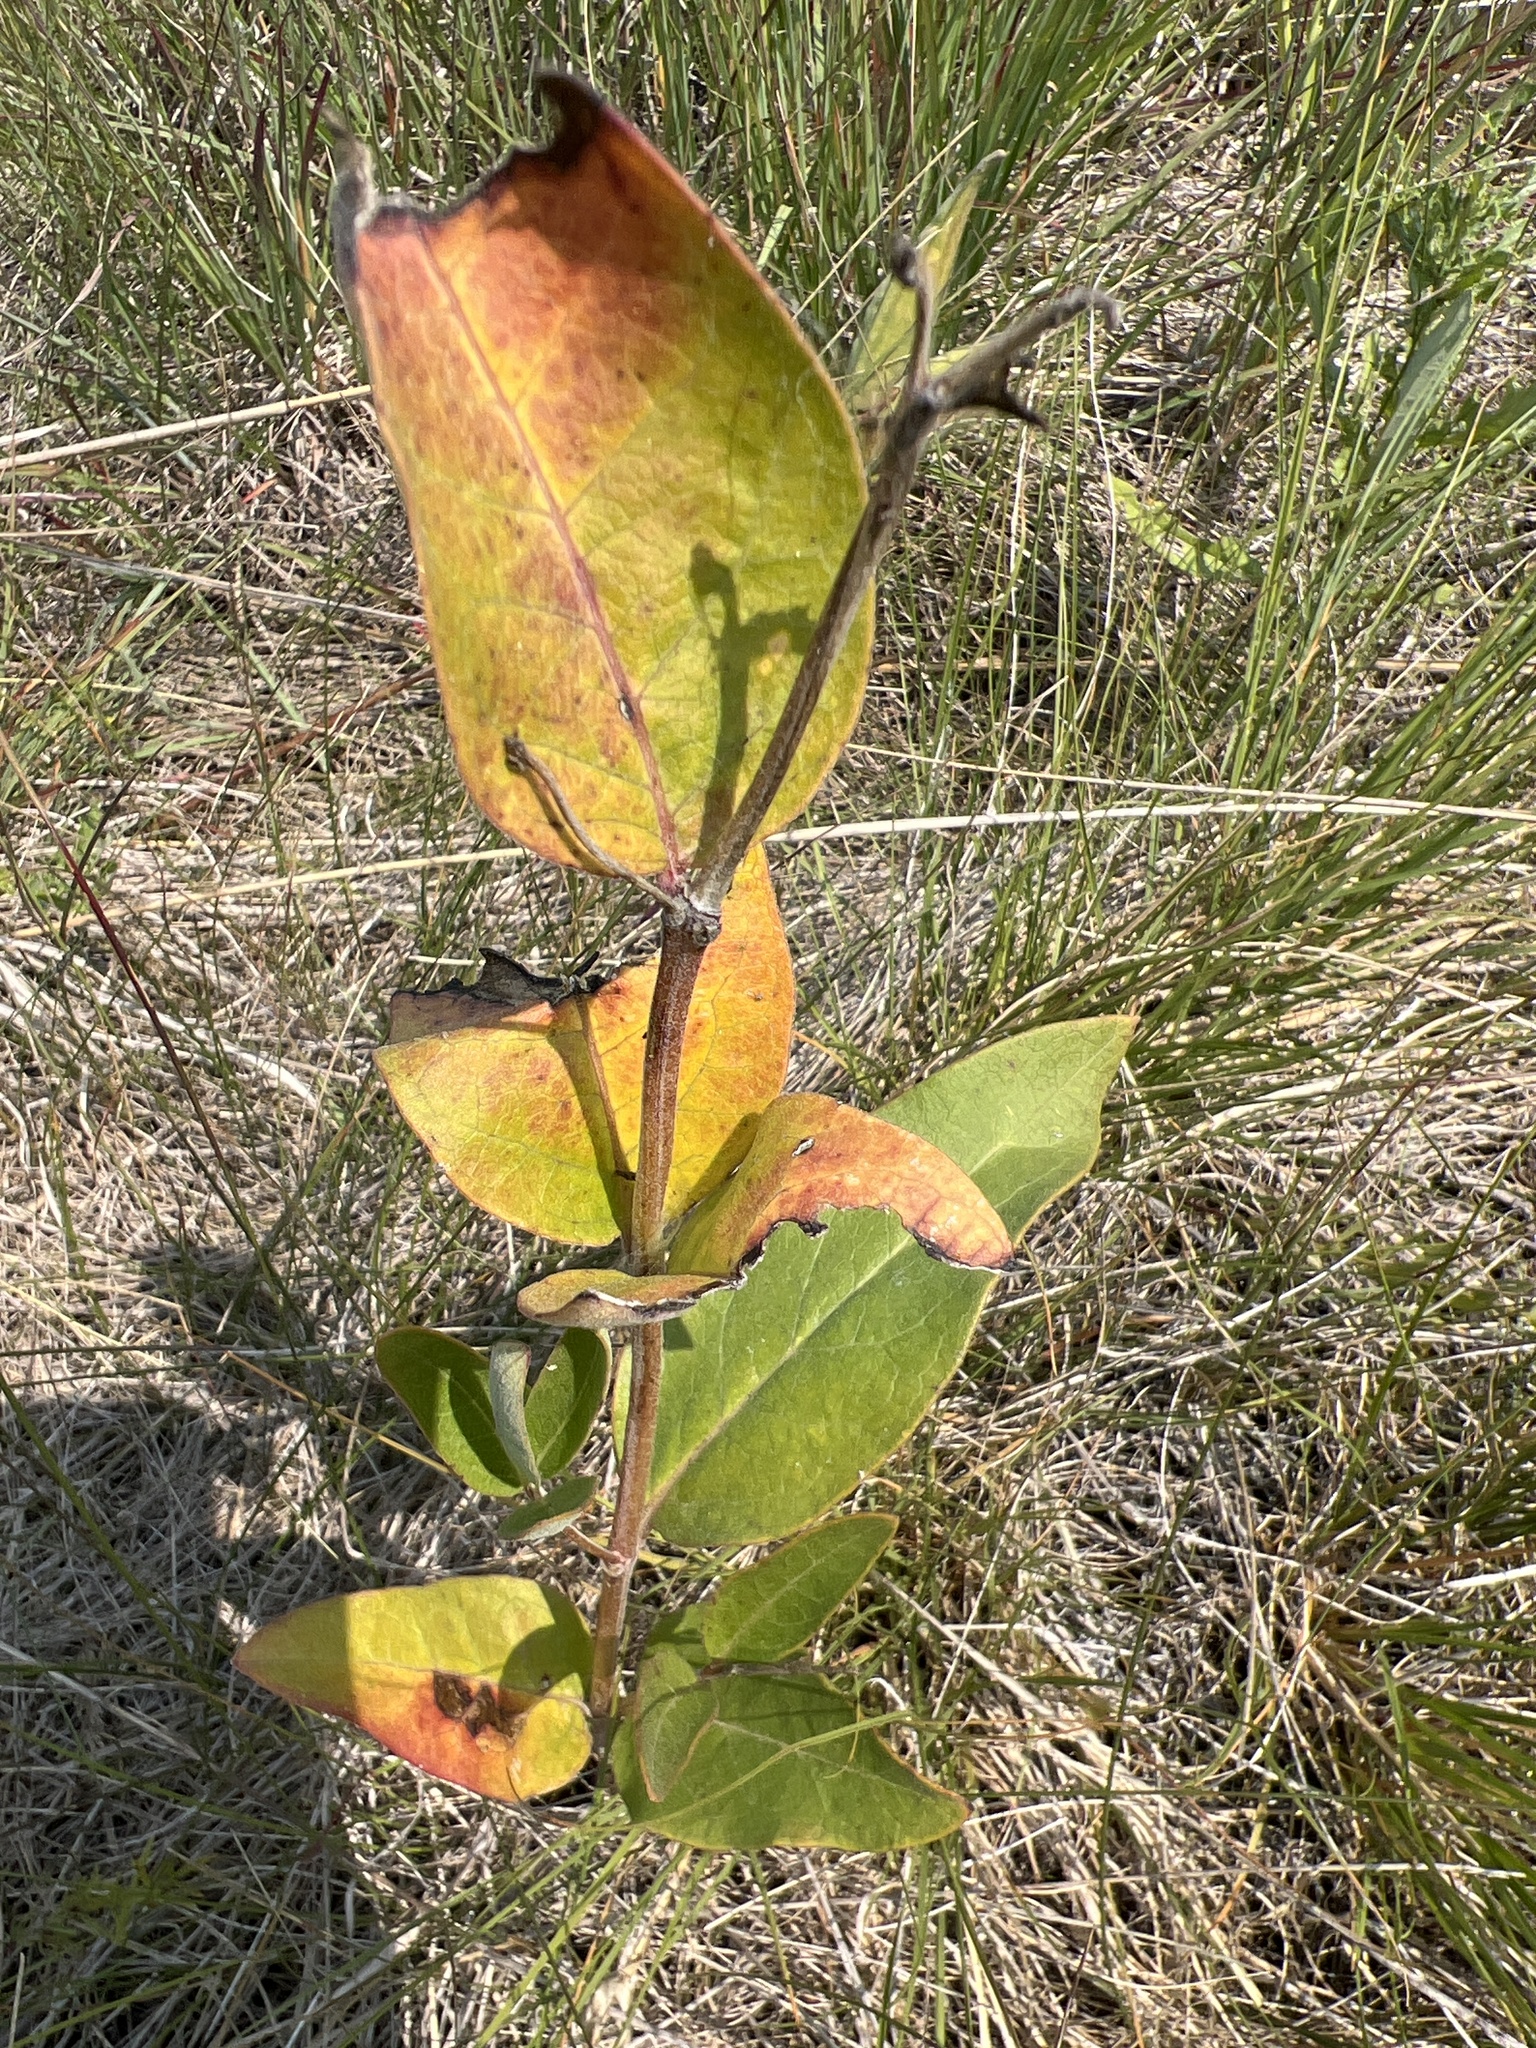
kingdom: Plantae
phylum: Tracheophyta
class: Magnoliopsida
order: Gentianales
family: Apocynaceae
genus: Asclepias
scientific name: Asclepias ovalifolia
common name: Dwarf milkweed
